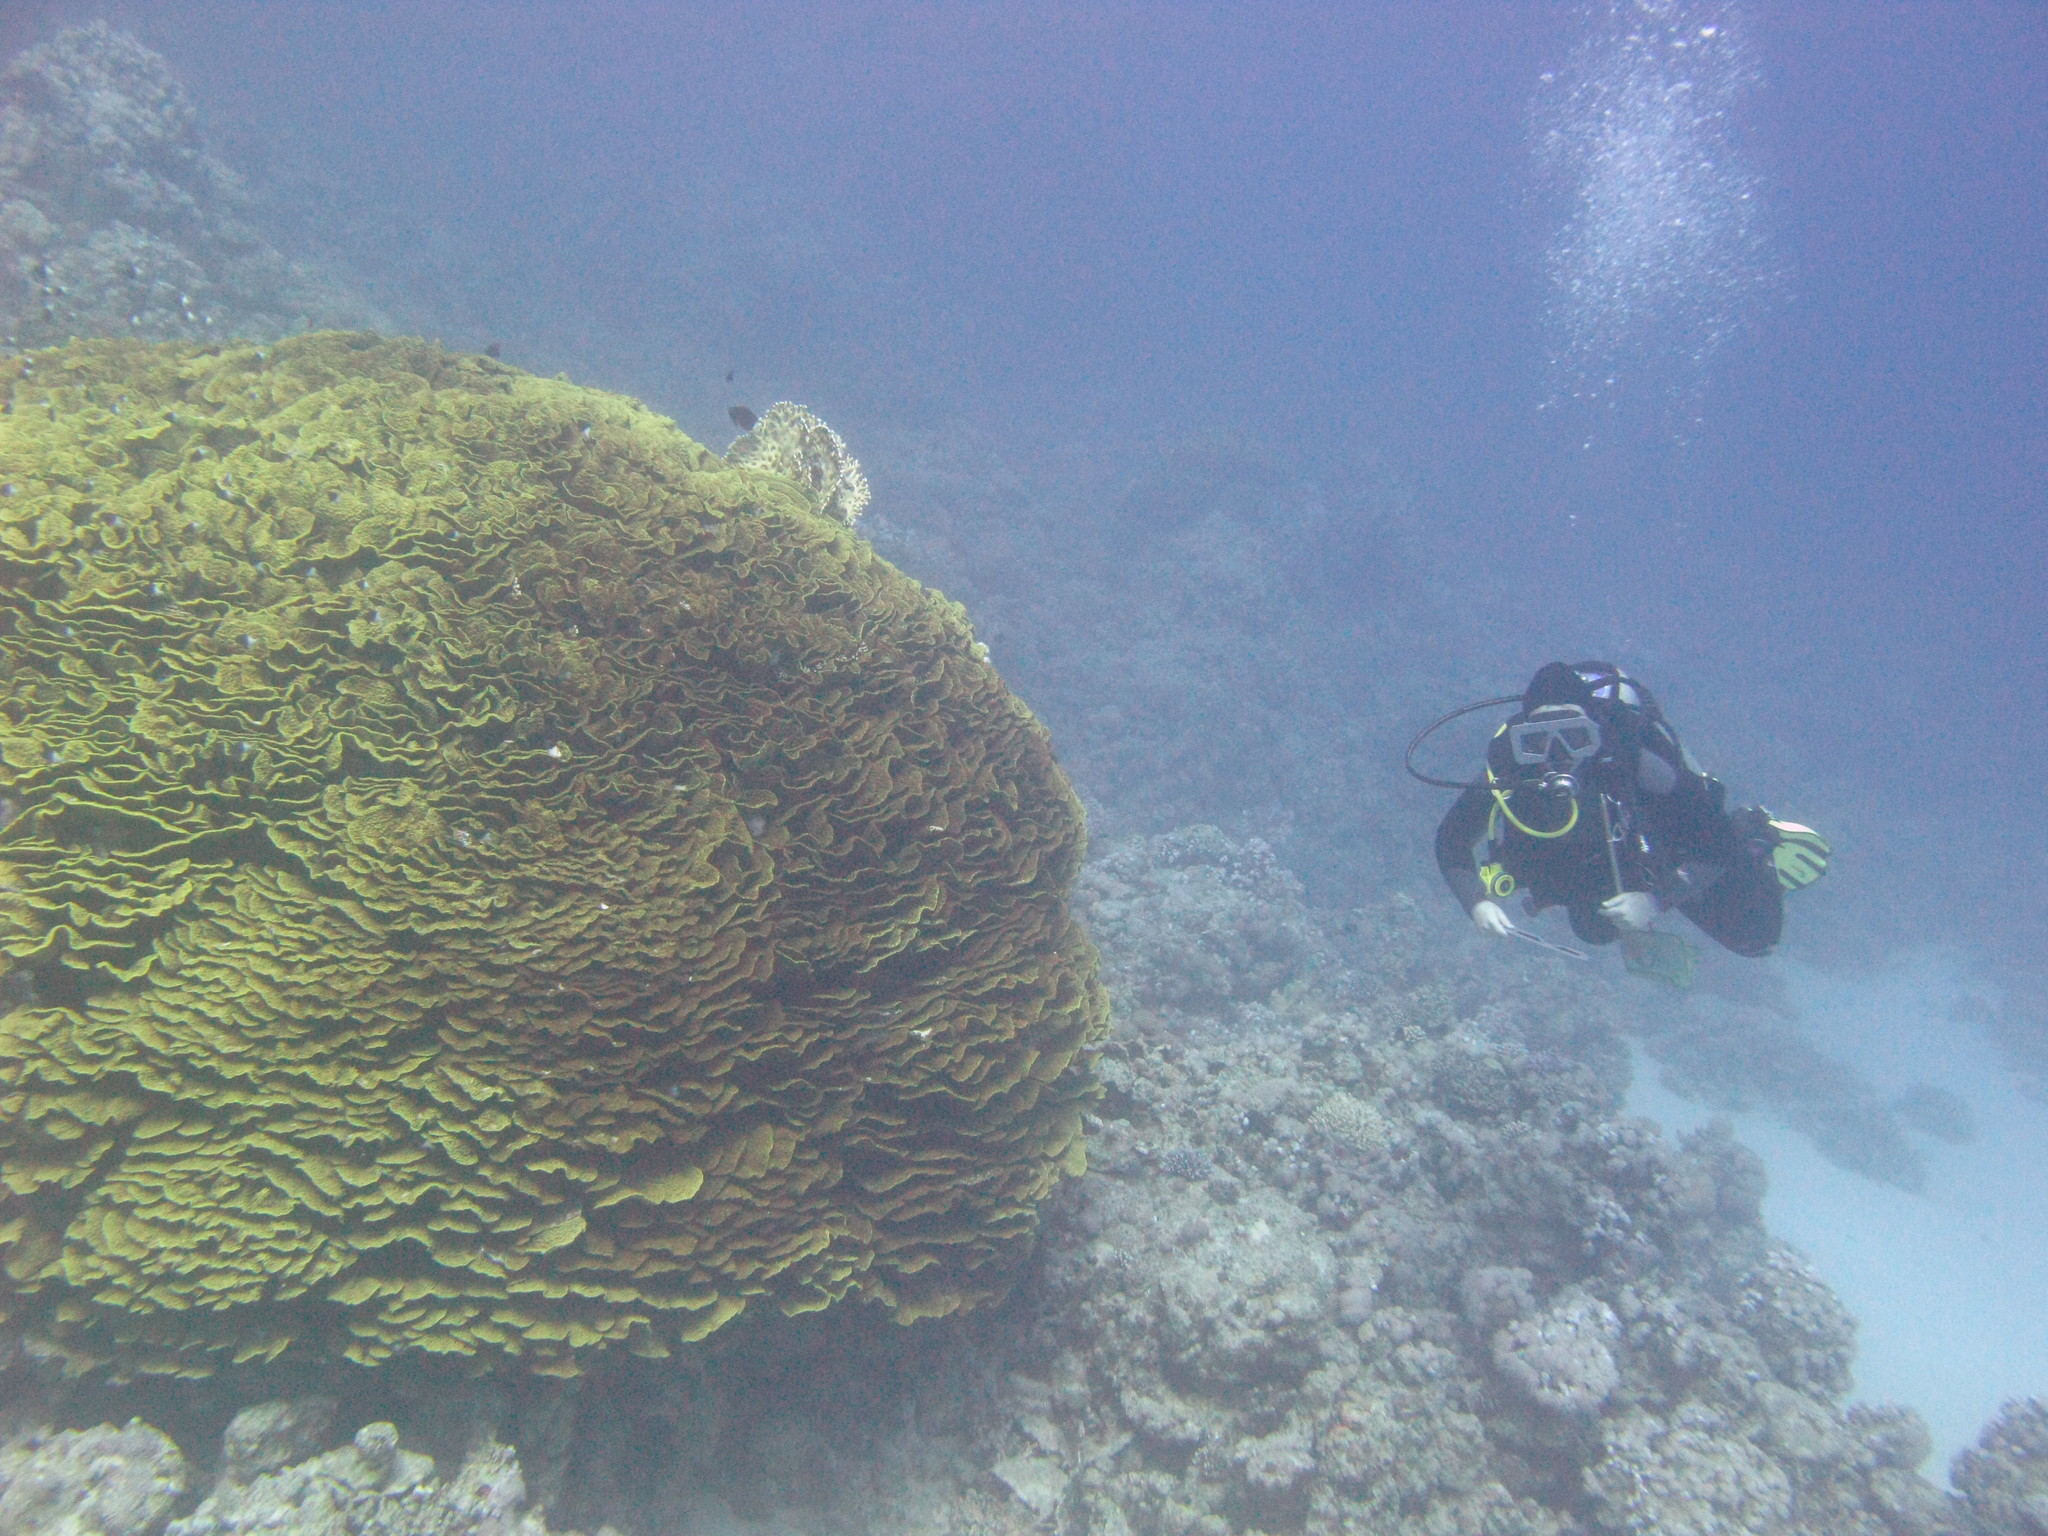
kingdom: Animalia
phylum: Cnidaria
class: Anthozoa
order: Scleractinia
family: Dendrophylliidae
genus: Turbinaria
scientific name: Turbinaria reniformis
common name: Disc coral
